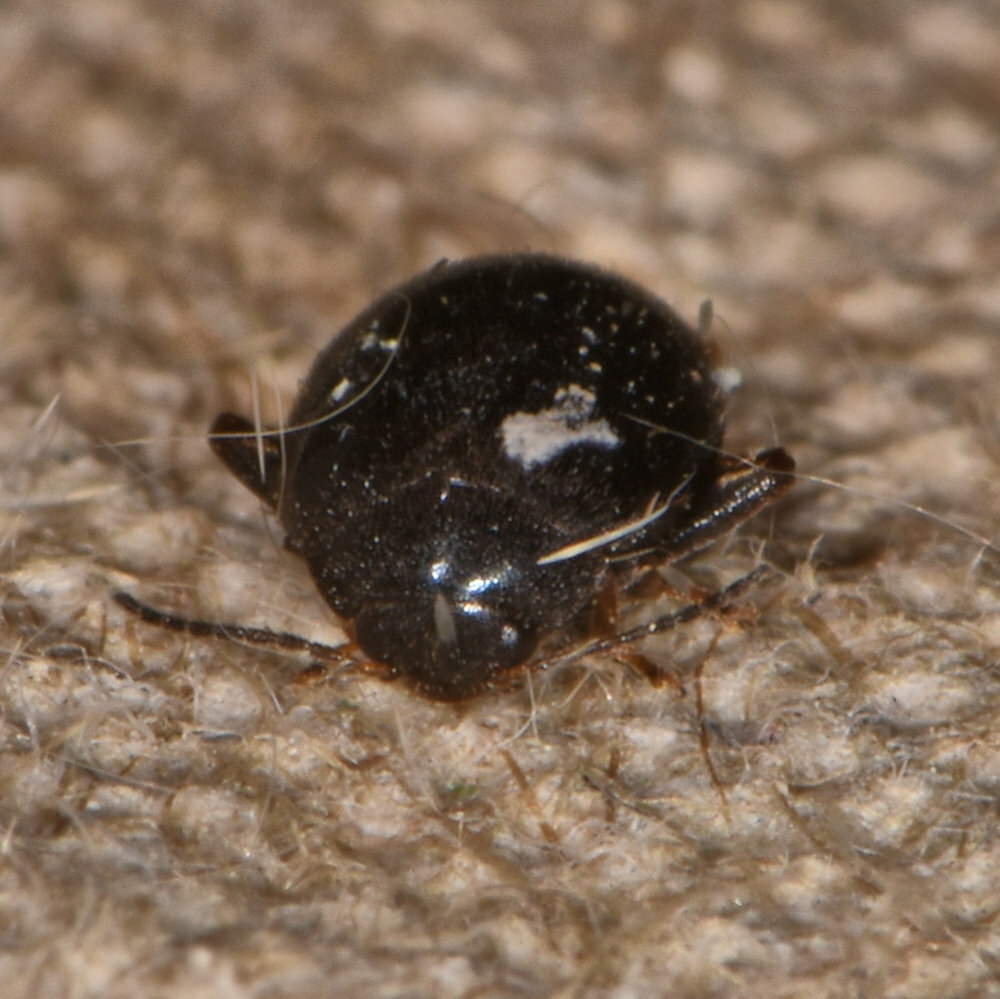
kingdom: Animalia
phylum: Arthropoda
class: Insecta
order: Coleoptera
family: Scirtidae
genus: Scirtes
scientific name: Scirtes tibialis
